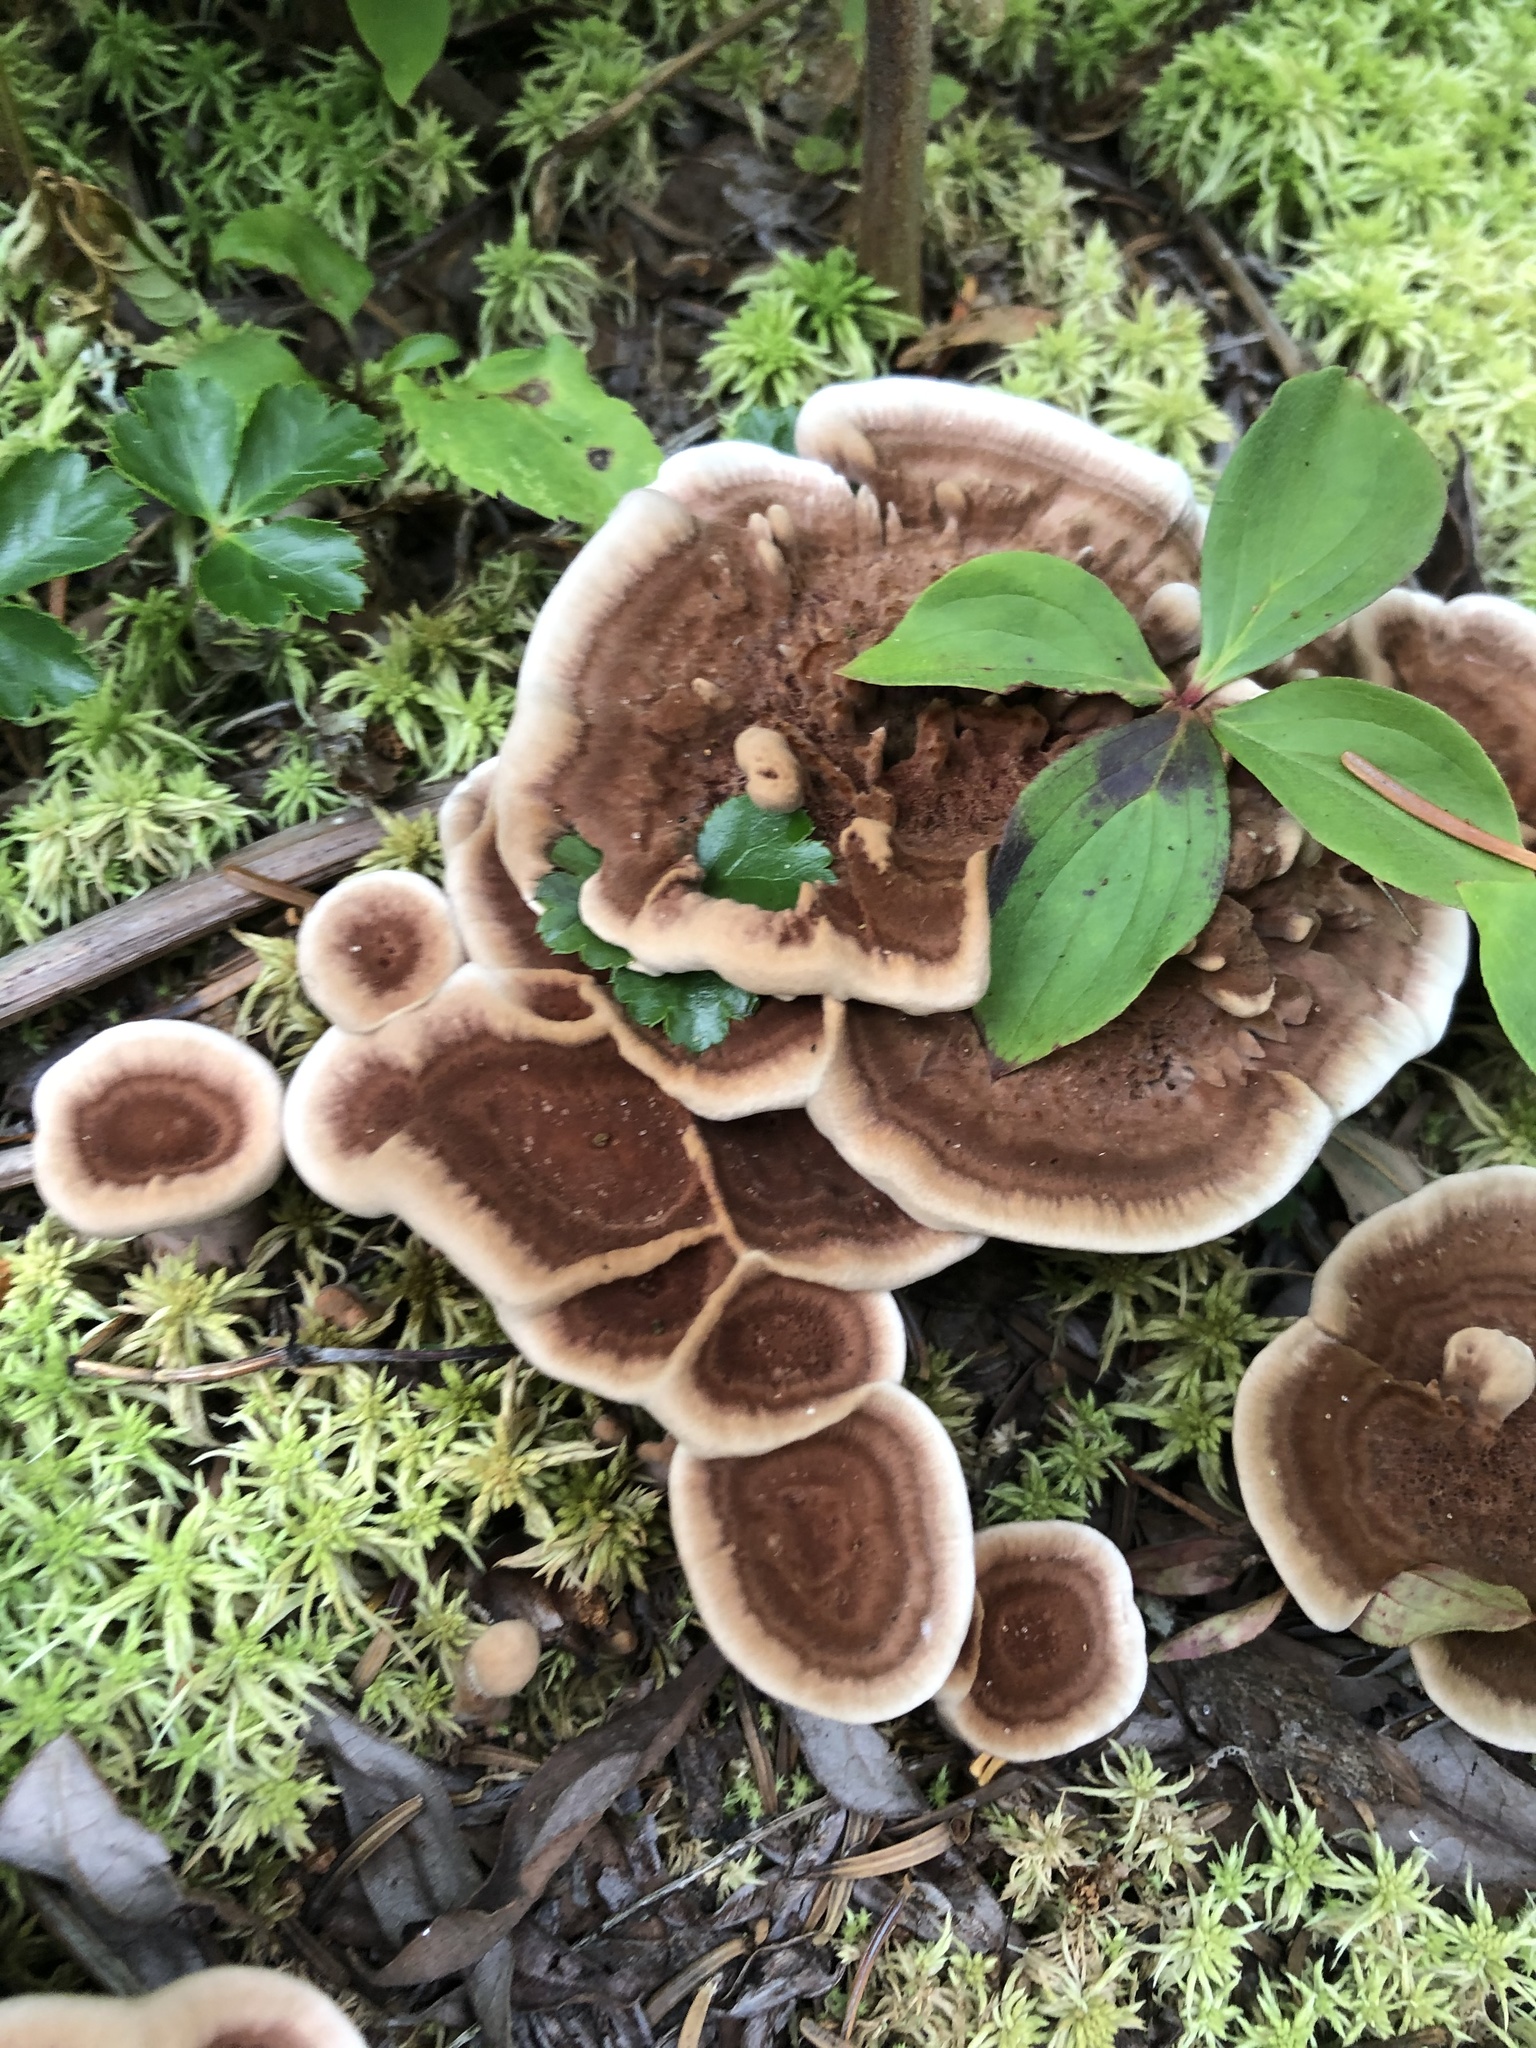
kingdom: Fungi
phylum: Basidiomycota
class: Agaricomycetes
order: Polyporales
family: Laetiporaceae
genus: Phaeolus
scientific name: Phaeolus schweinitzii
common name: Dyer's mazegill
